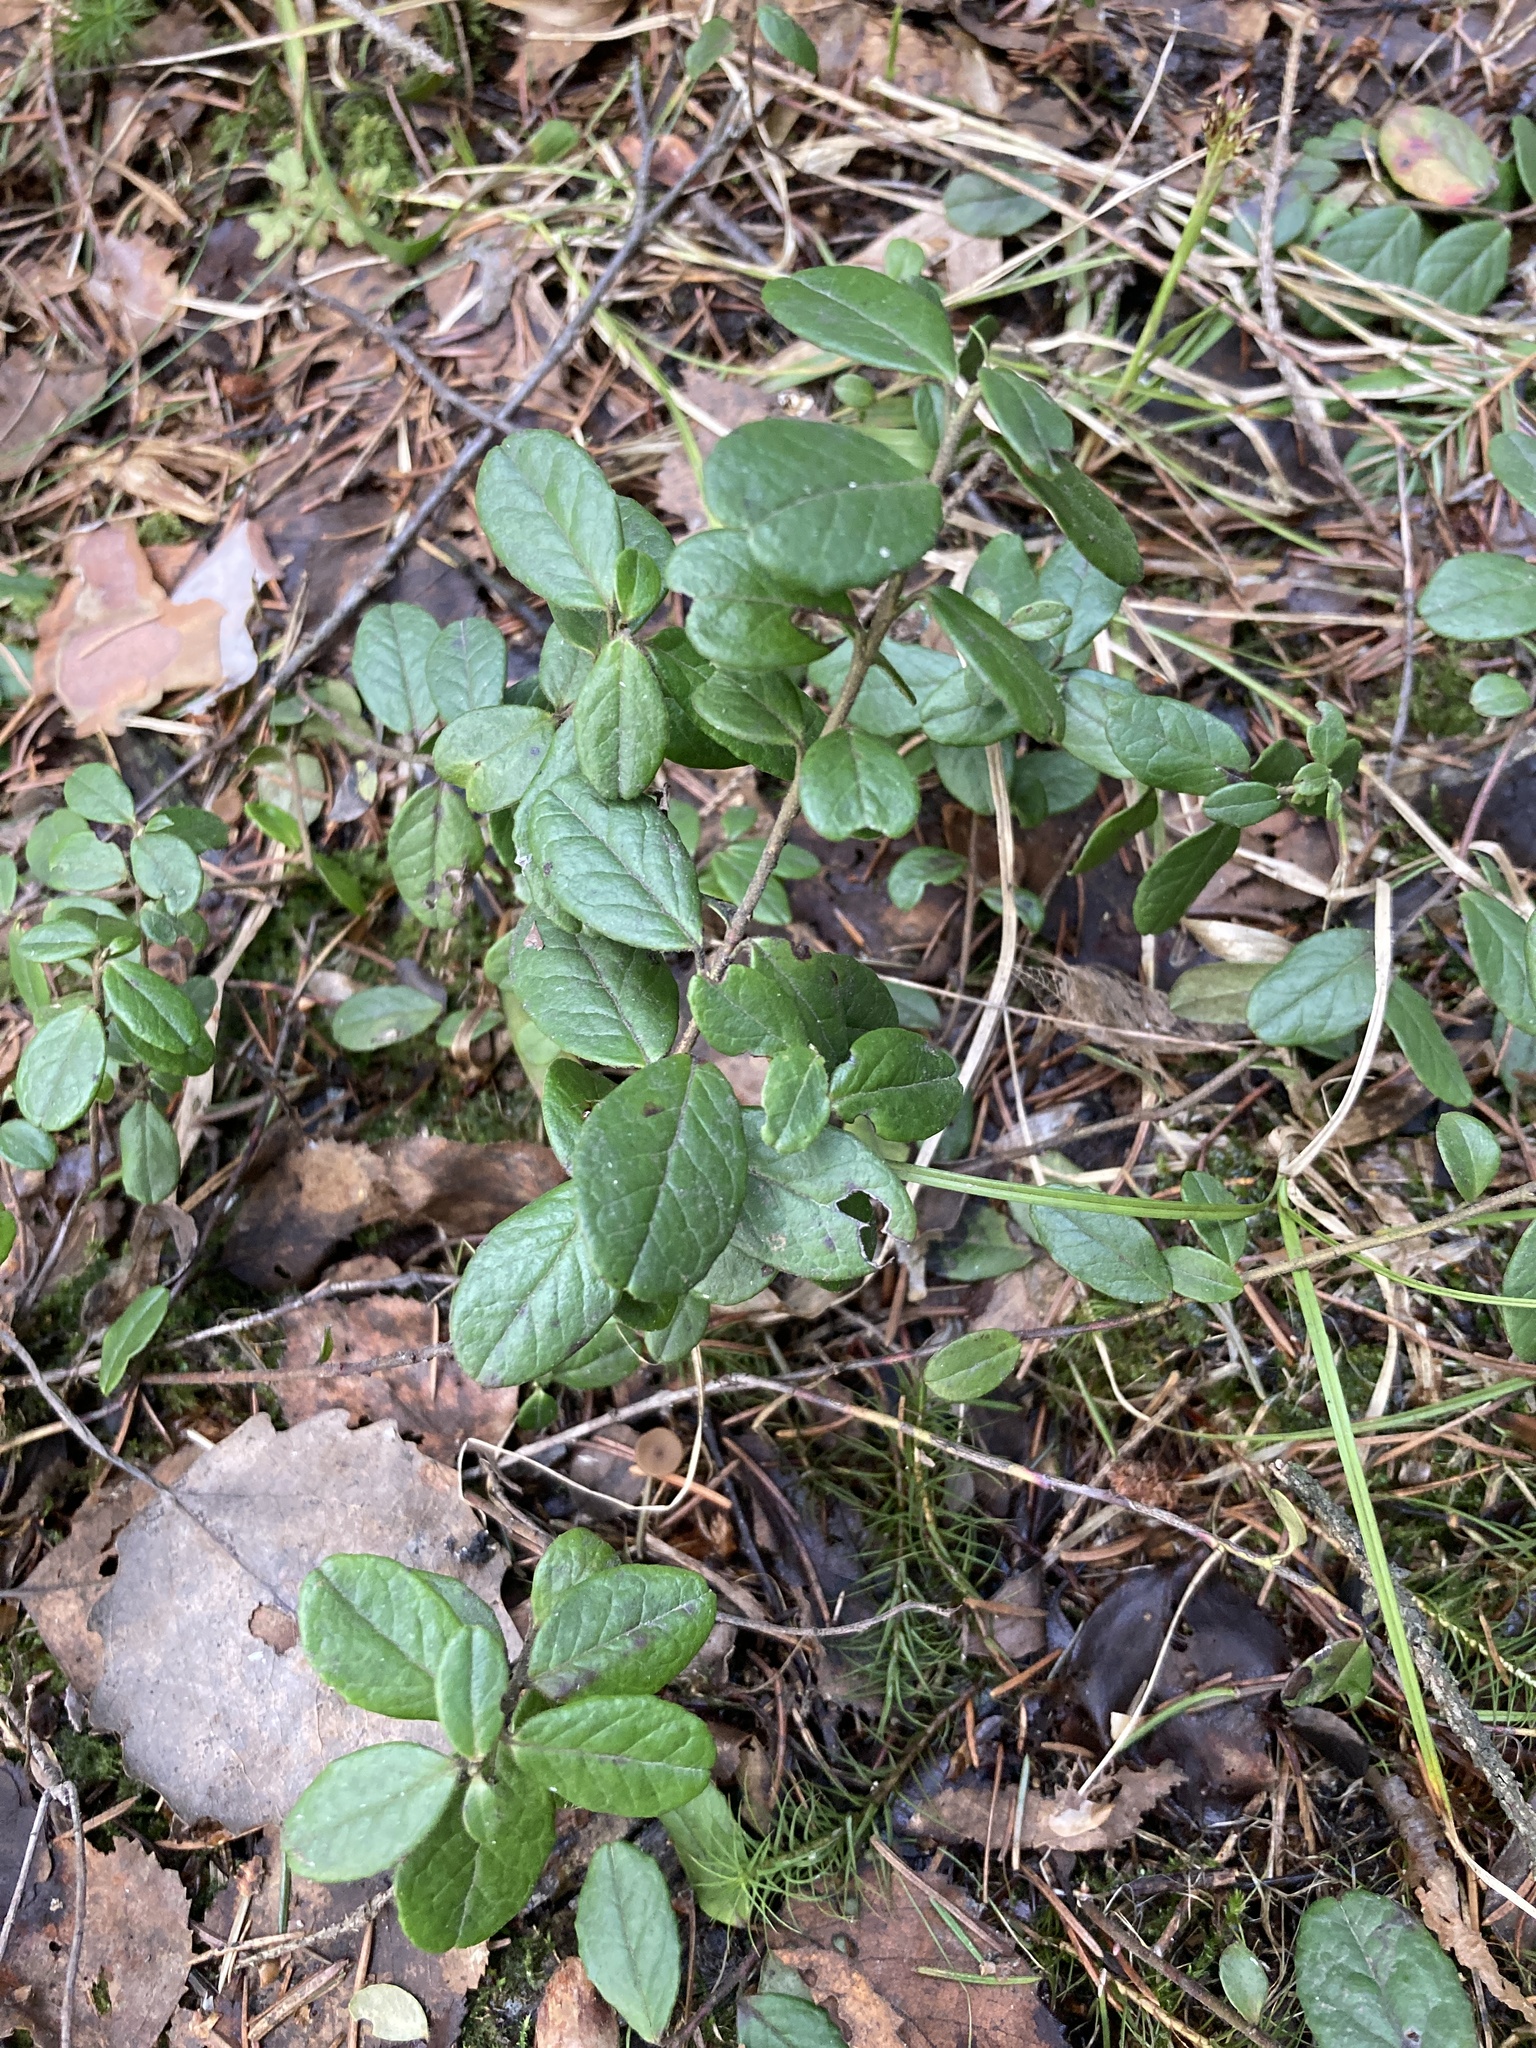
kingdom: Plantae
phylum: Tracheophyta
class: Magnoliopsida
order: Ericales
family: Ericaceae
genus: Vaccinium
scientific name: Vaccinium vitis-idaea
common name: Cowberry
